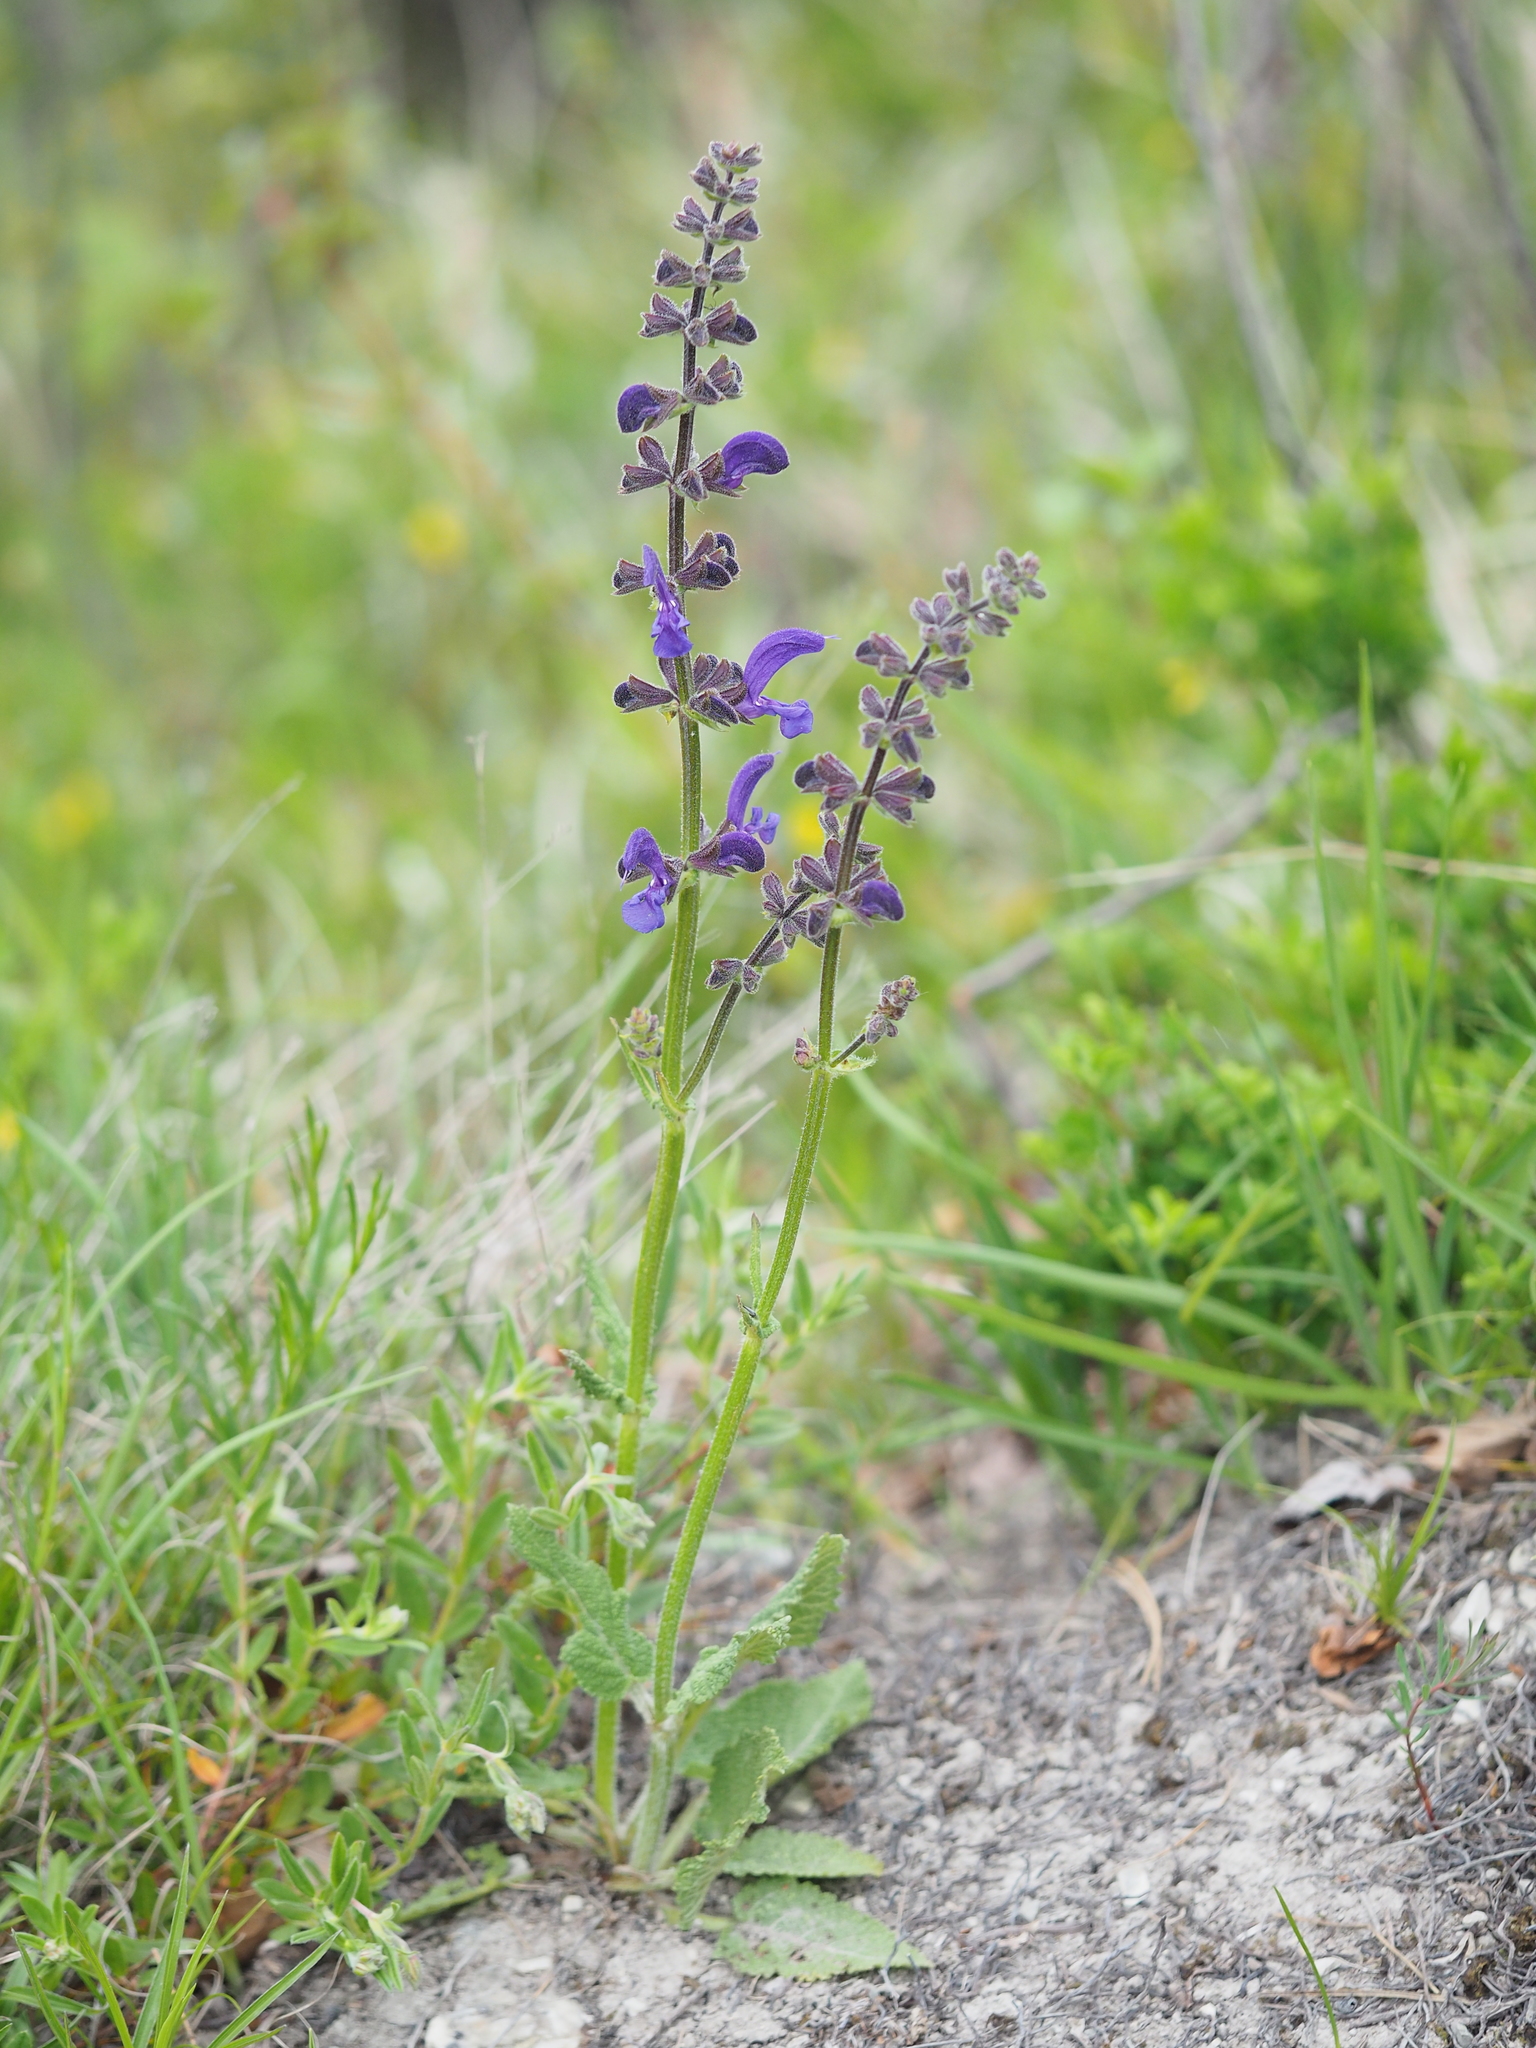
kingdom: Plantae
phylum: Tracheophyta
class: Magnoliopsida
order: Lamiales
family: Lamiaceae
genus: Salvia
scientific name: Salvia pratensis
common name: Meadow sage
